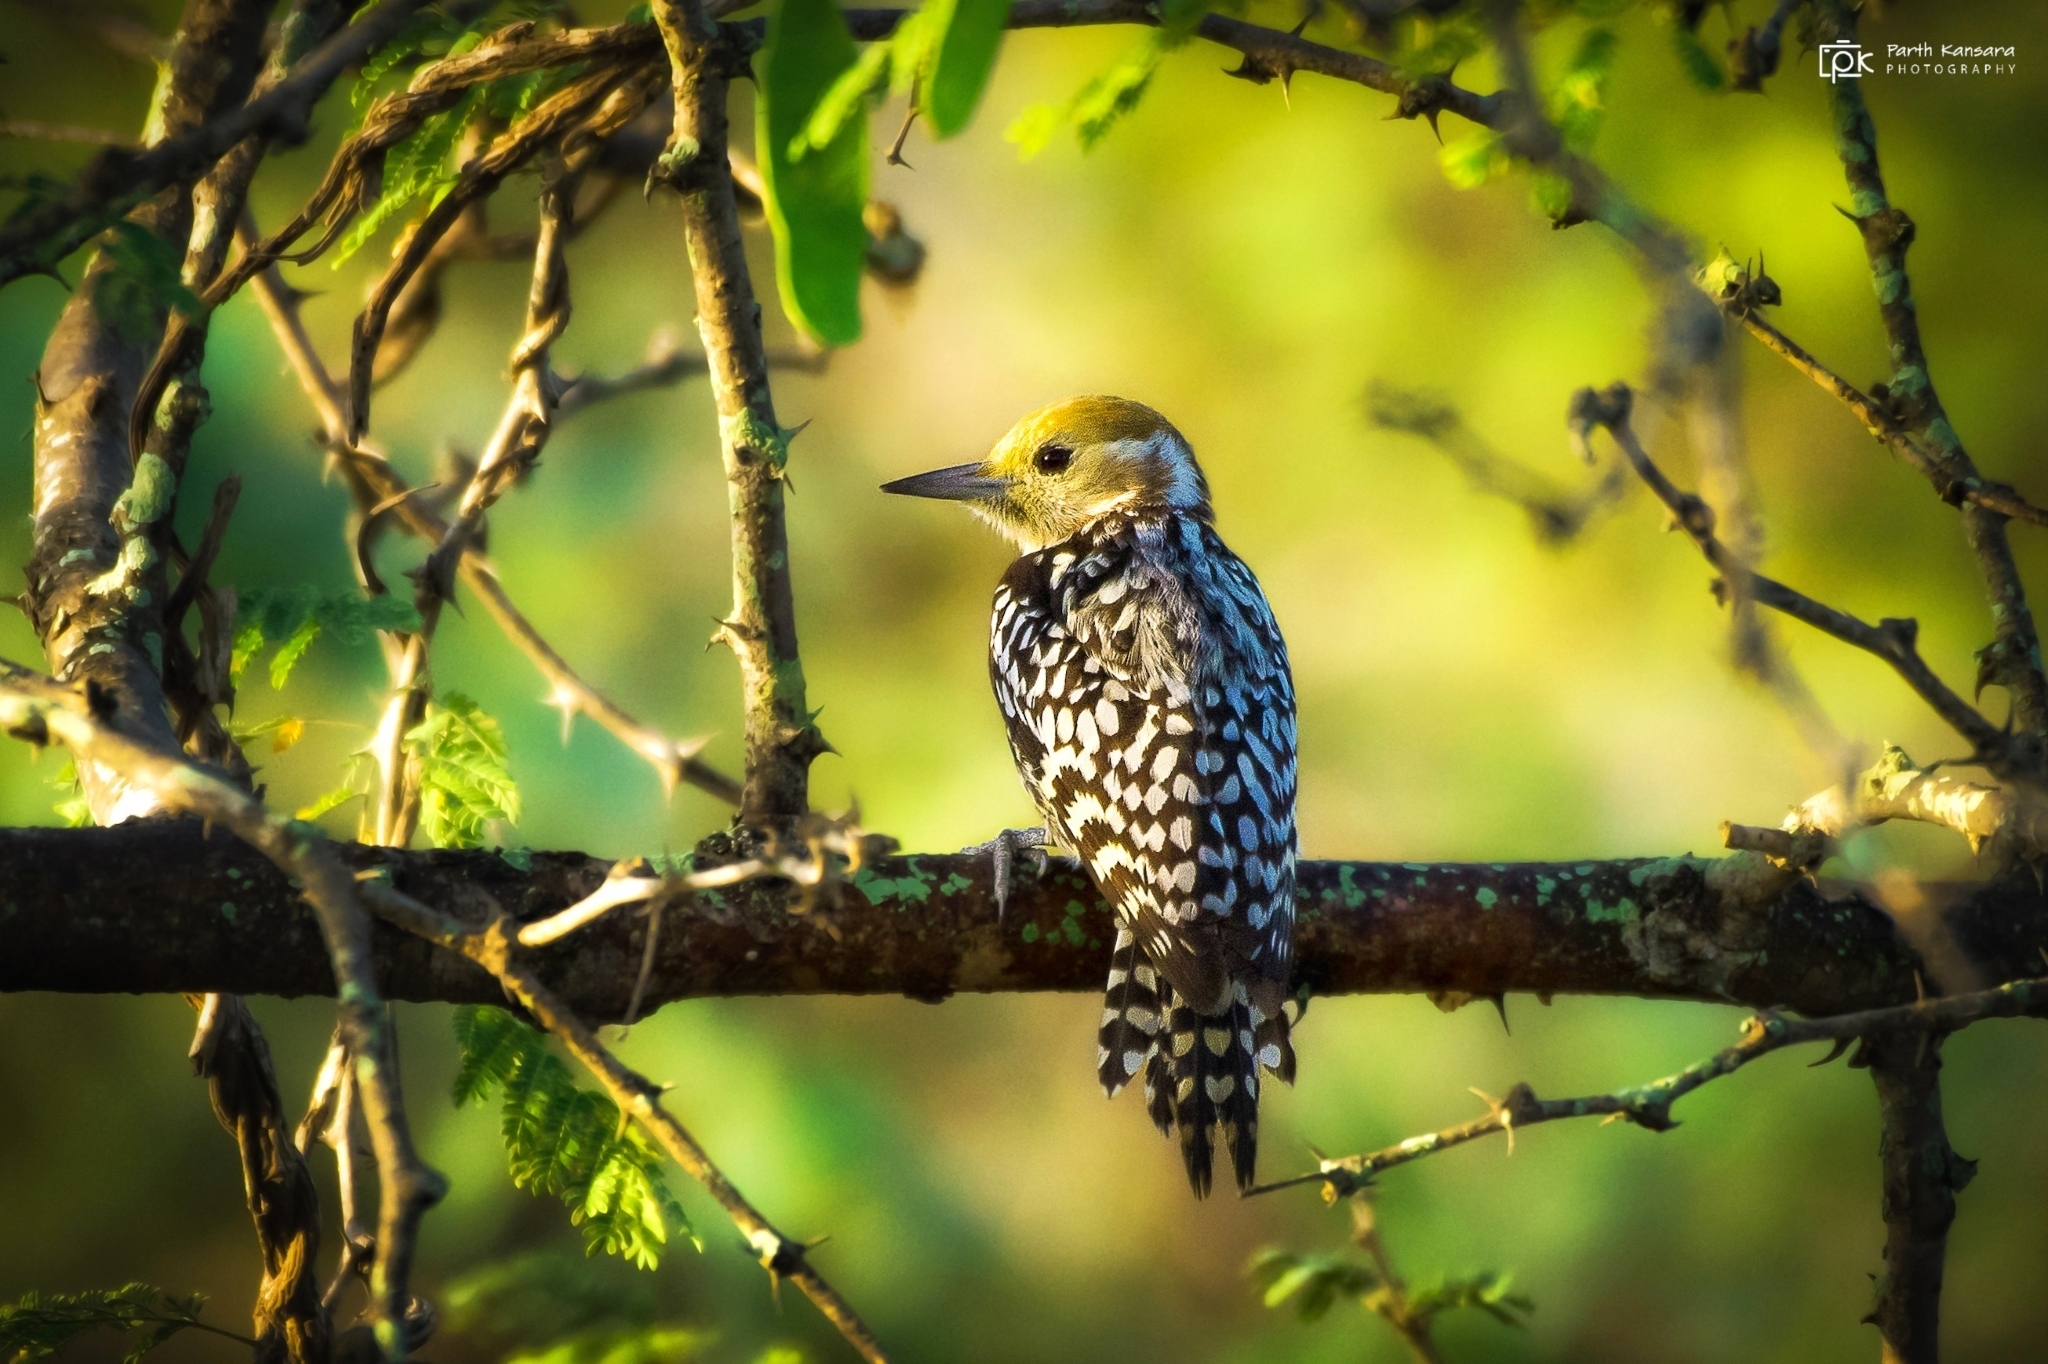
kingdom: Animalia
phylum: Chordata
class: Aves
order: Piciformes
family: Picidae
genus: Leiopicus
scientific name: Leiopicus mahrattensis
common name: Yellow-crowned woodpecker
